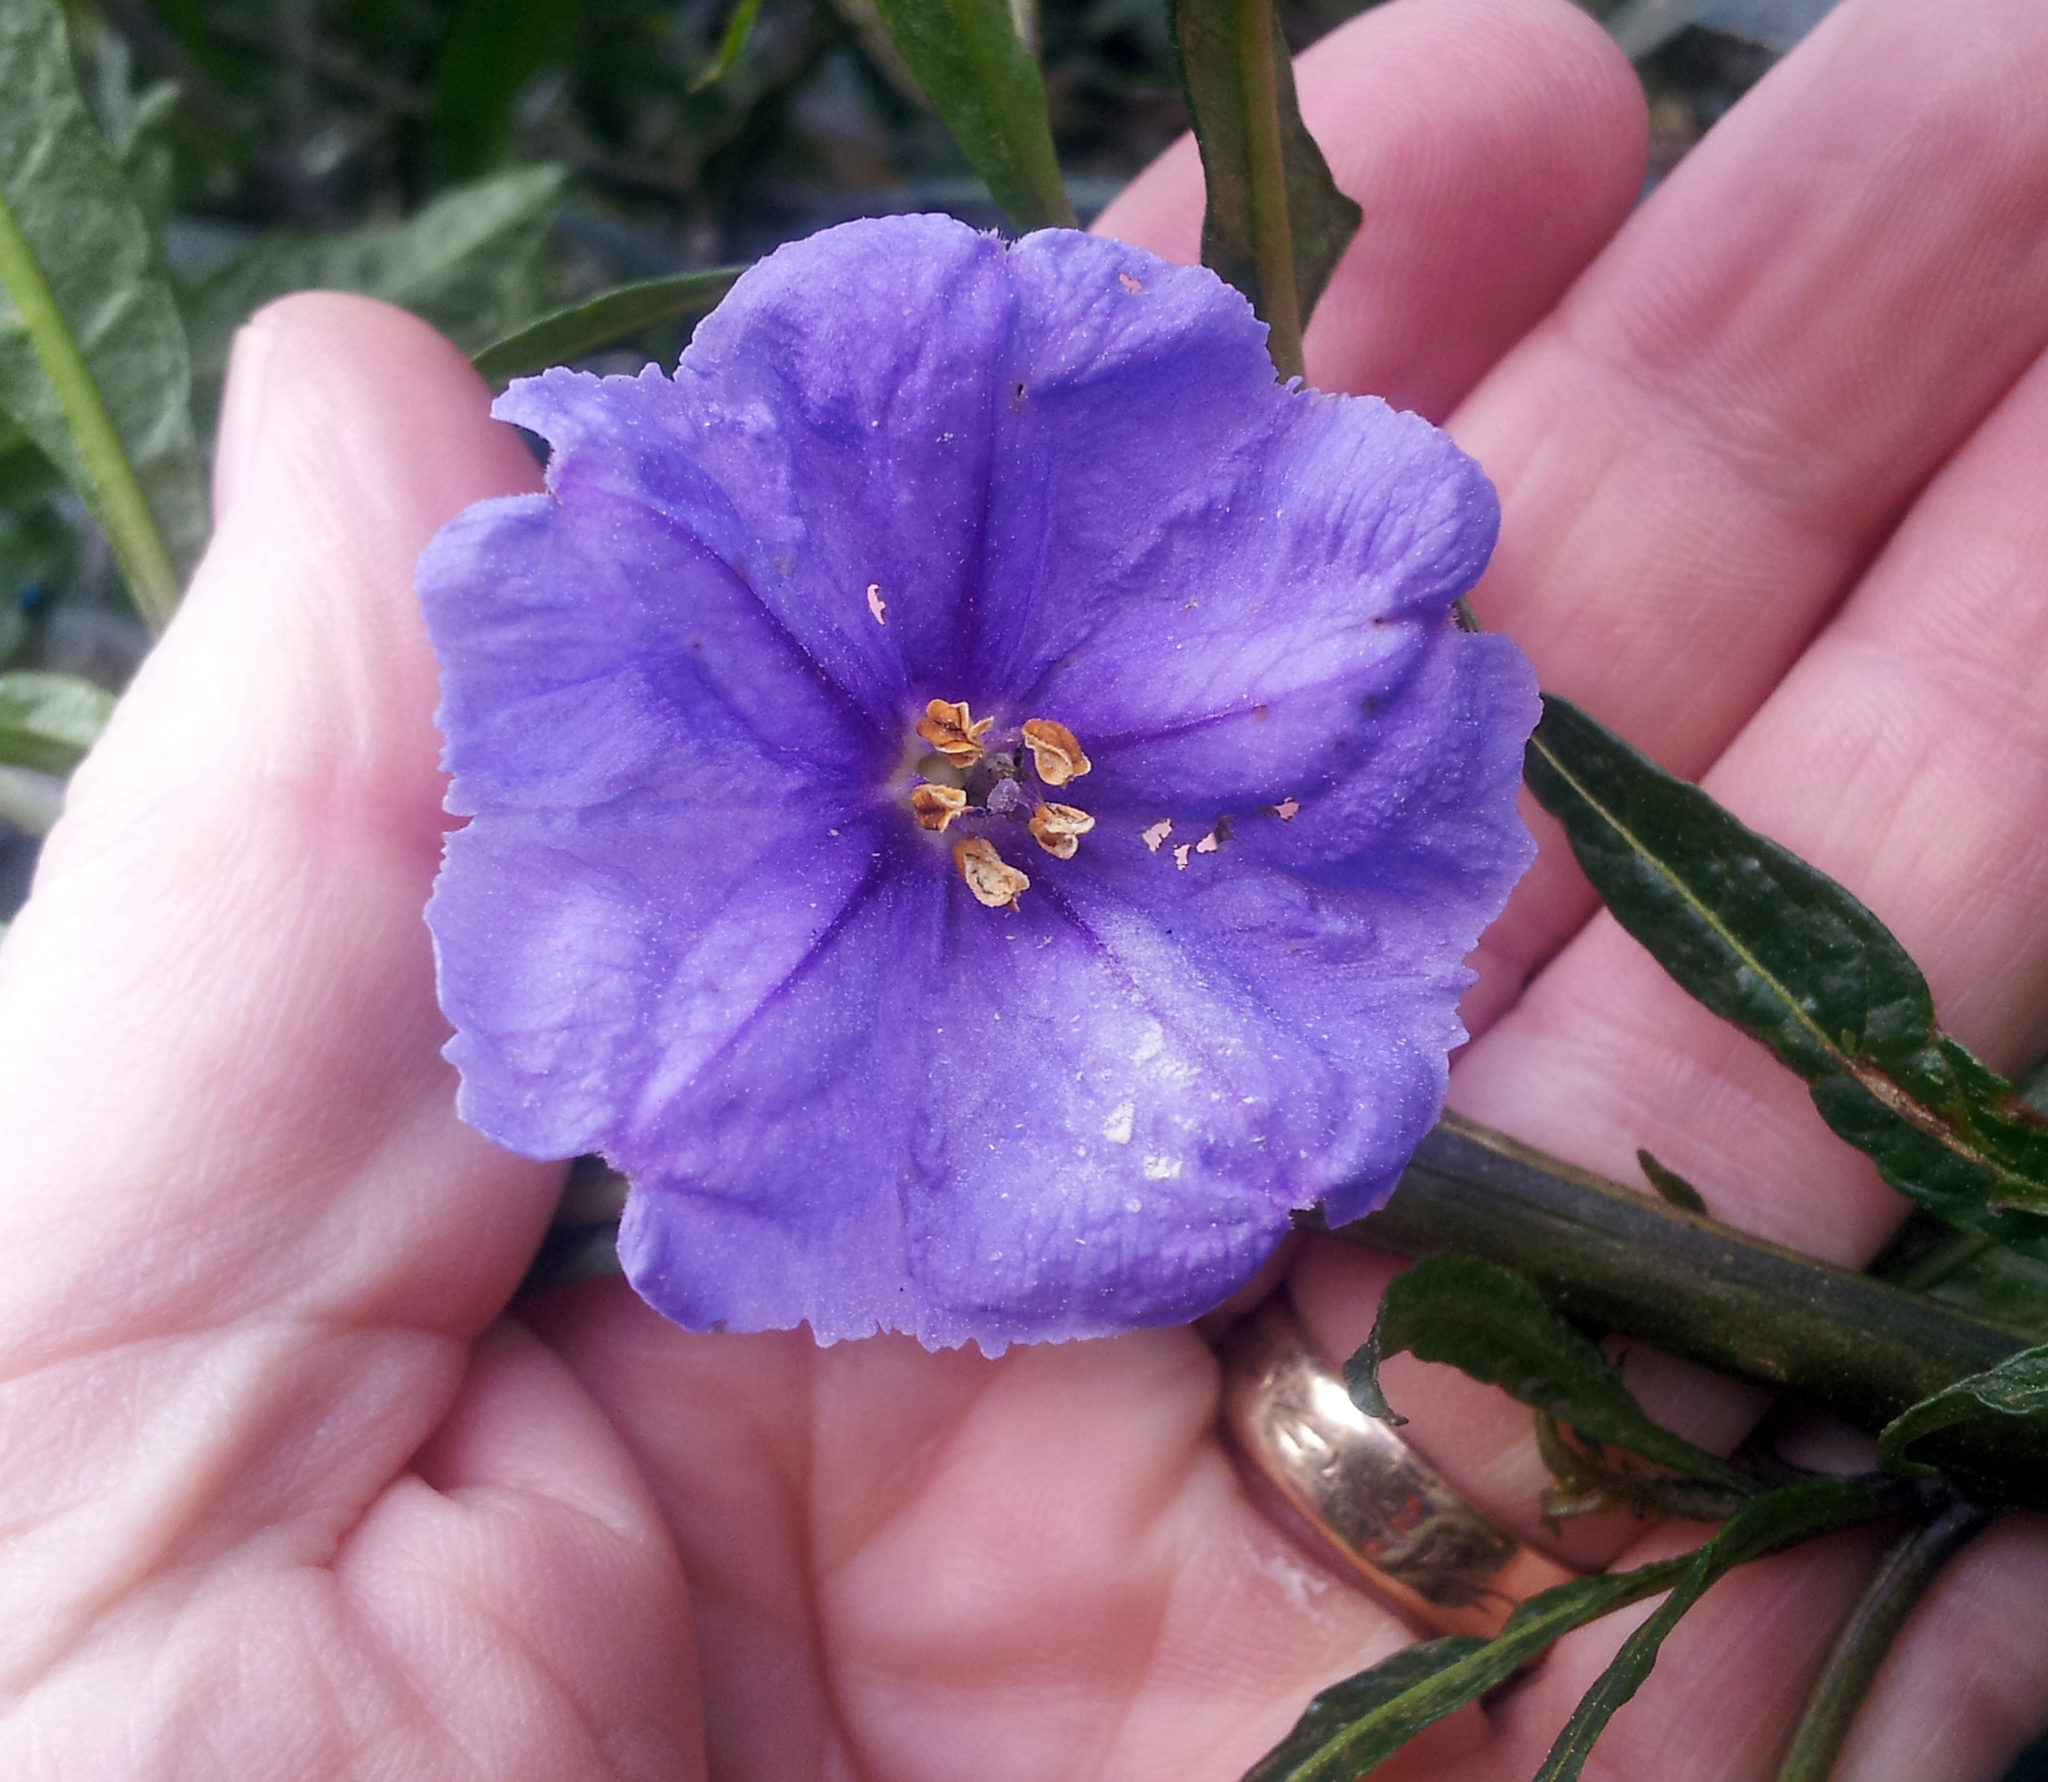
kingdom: Plantae
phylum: Tracheophyta
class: Magnoliopsida
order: Solanales
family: Solanaceae
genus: Solanum
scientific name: Solanum laciniatum
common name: Kangaroo-apple
